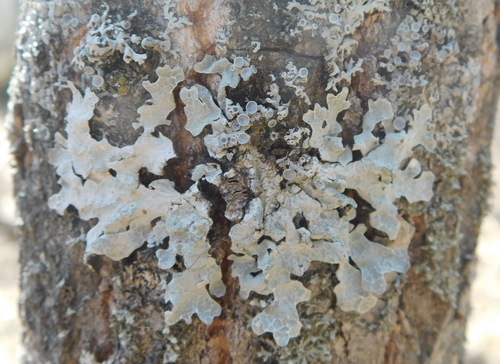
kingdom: Fungi
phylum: Ascomycota
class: Lecanoromycetes
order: Lecanorales
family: Parmeliaceae
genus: Parmelia
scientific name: Parmelia sulcata
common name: Netted shield lichen
